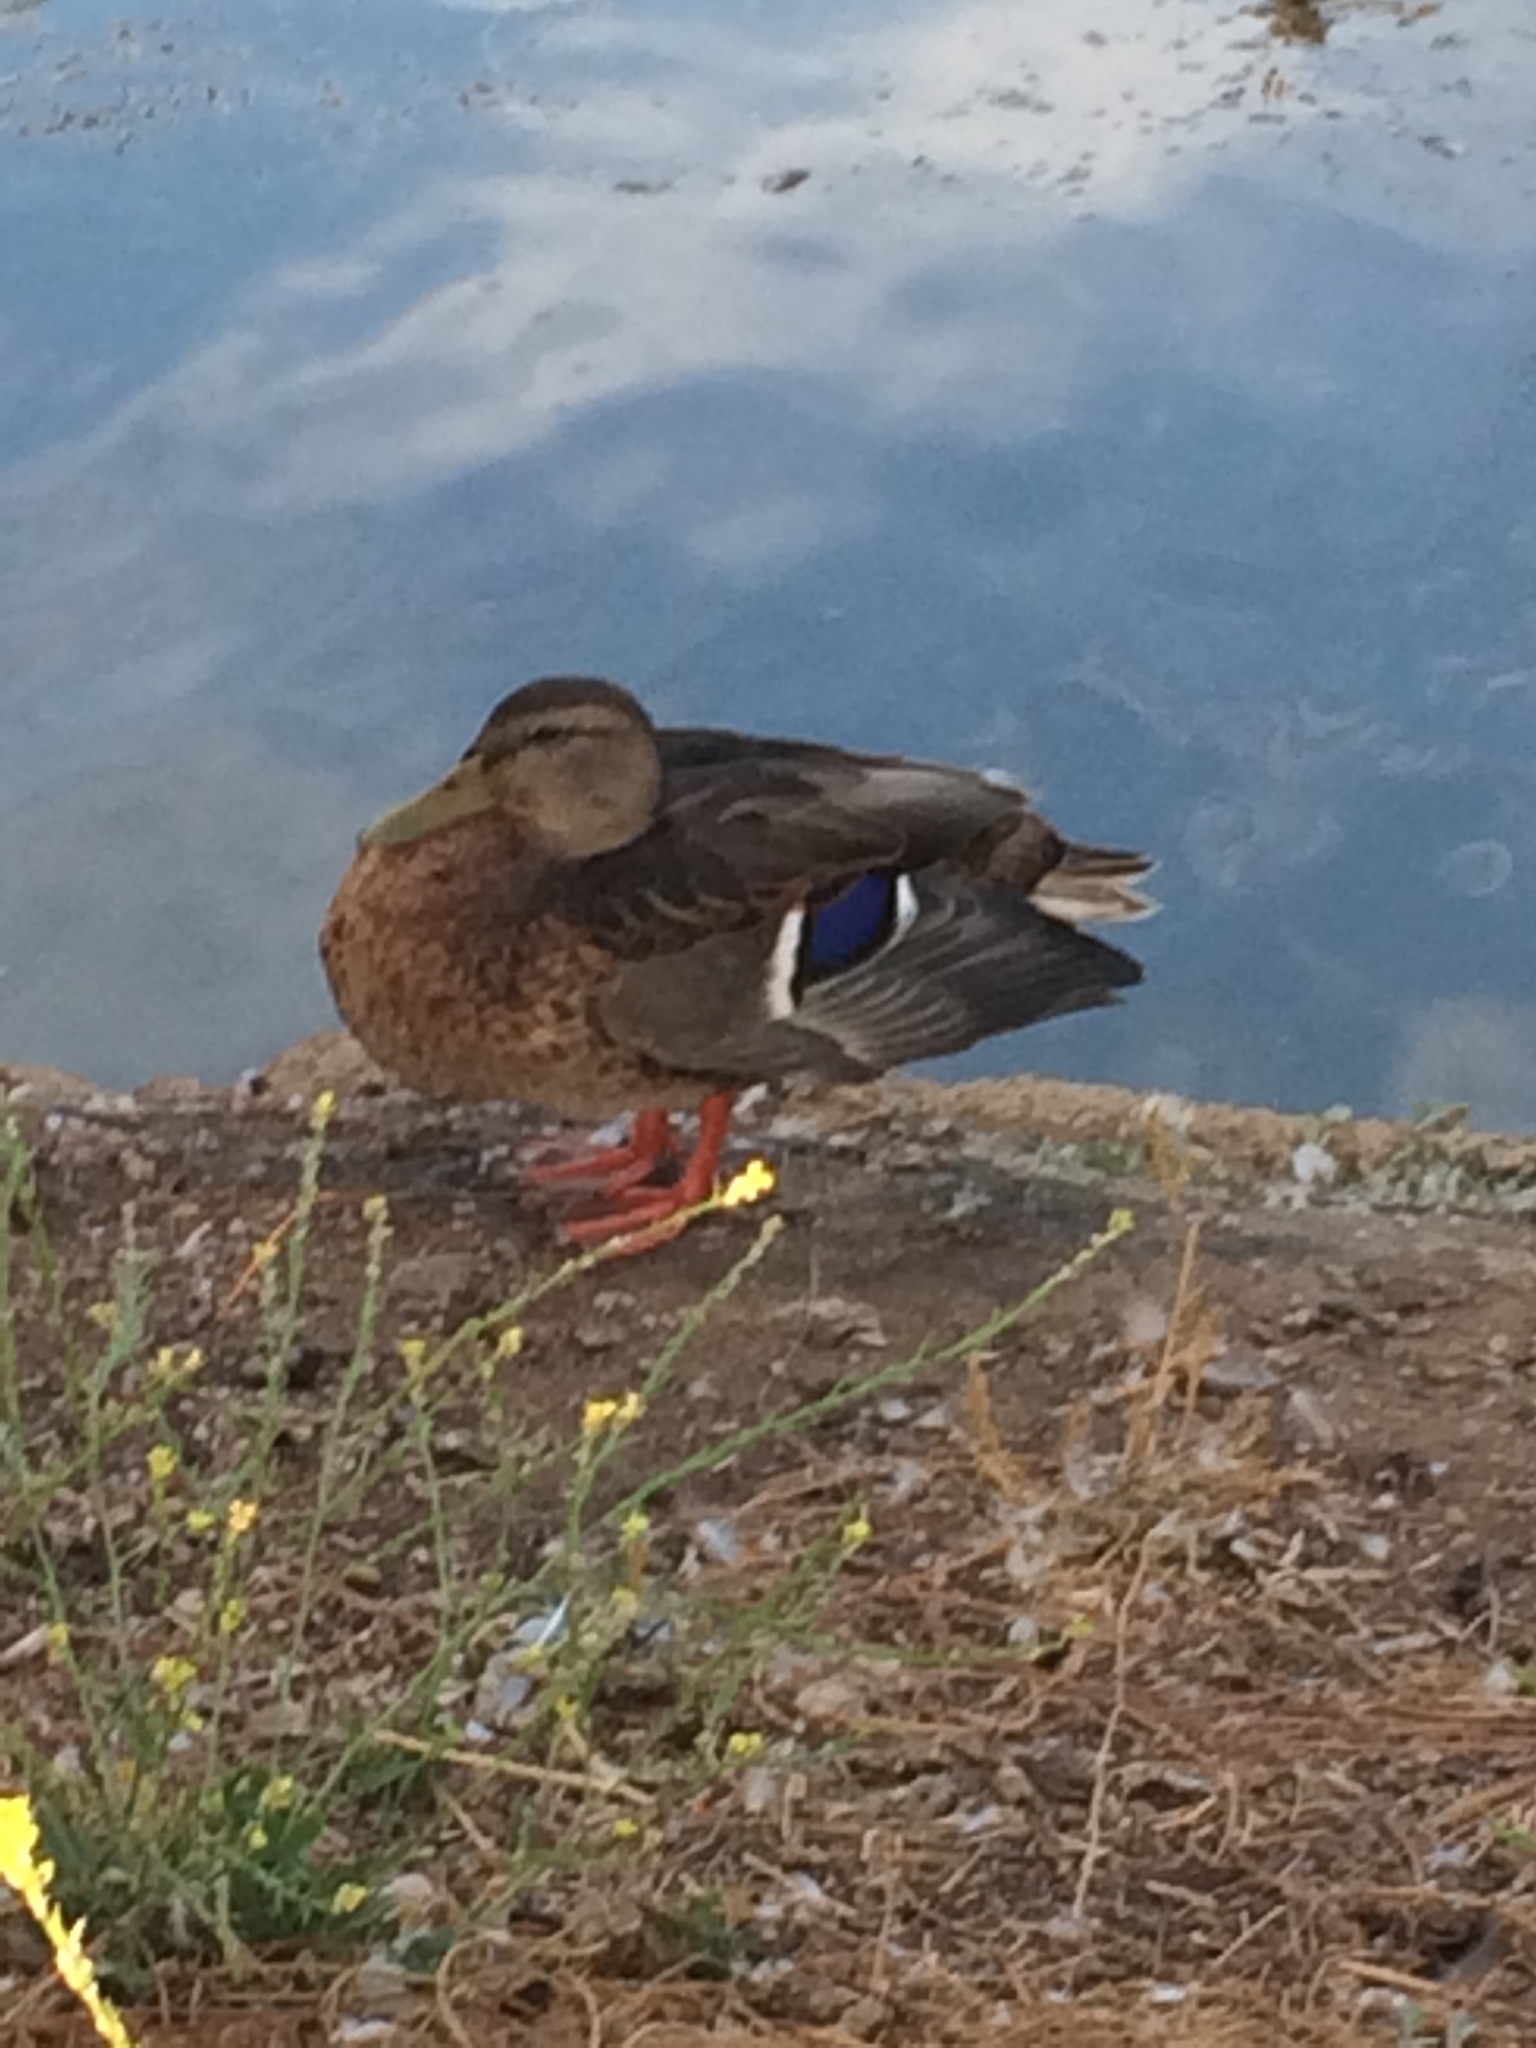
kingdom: Animalia
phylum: Chordata
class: Aves
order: Anseriformes
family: Anatidae
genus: Anas
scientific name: Anas platyrhynchos
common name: Mallard
